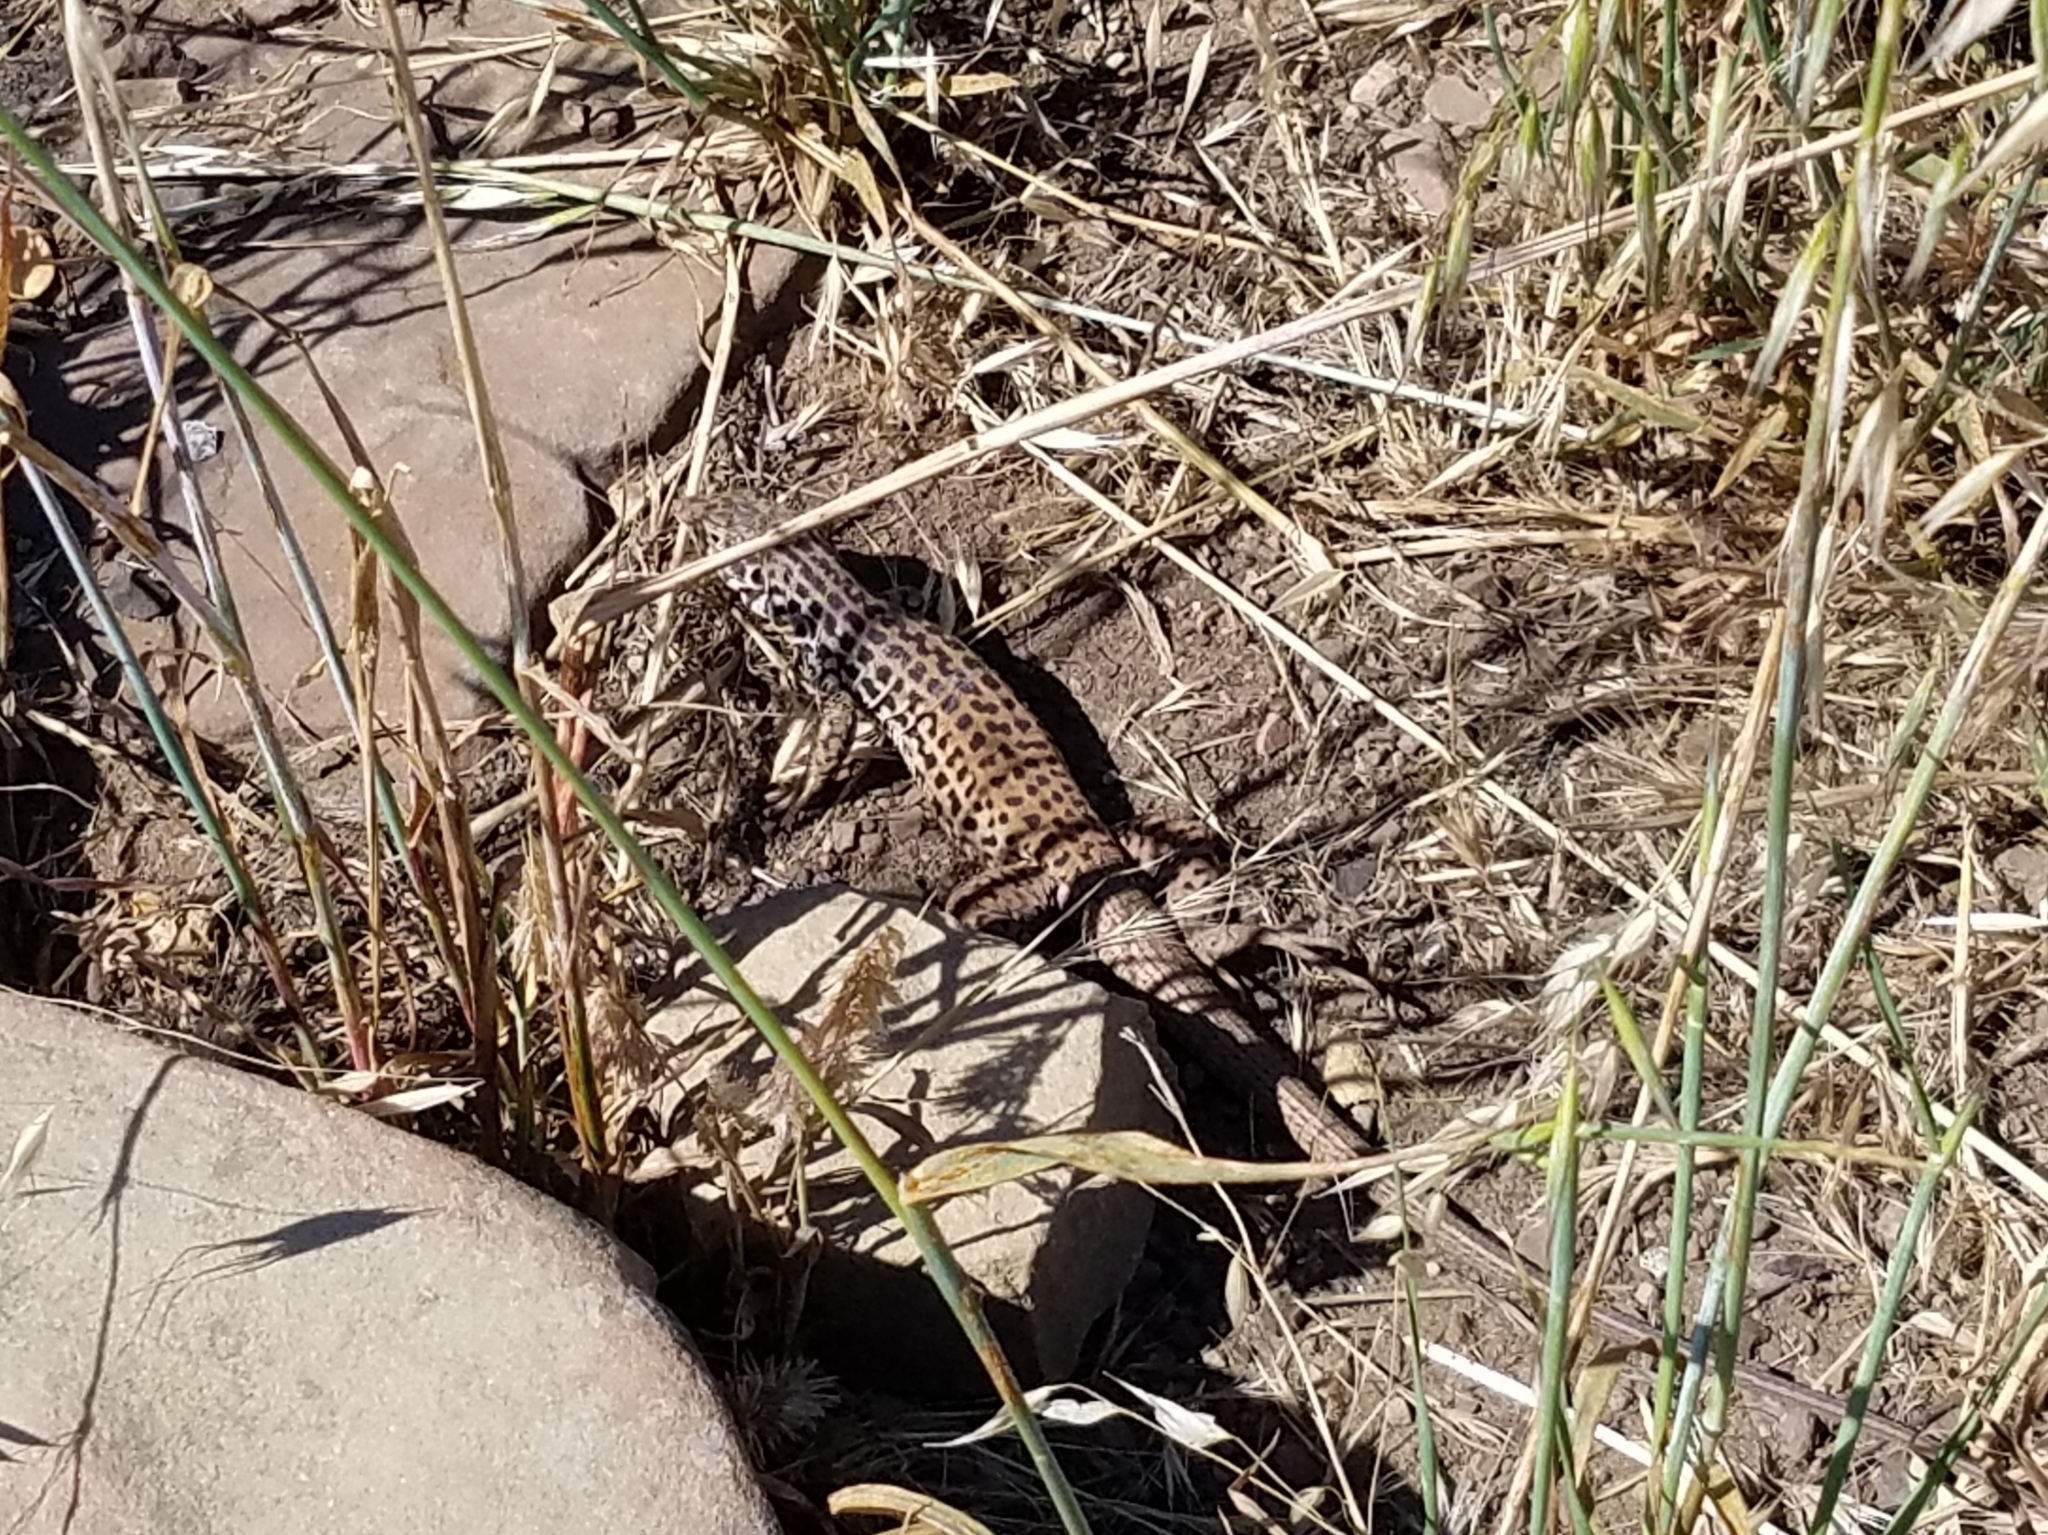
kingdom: Animalia
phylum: Chordata
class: Squamata
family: Teiidae
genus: Aspidoscelis
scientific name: Aspidoscelis tigris
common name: Tiger whiptail
